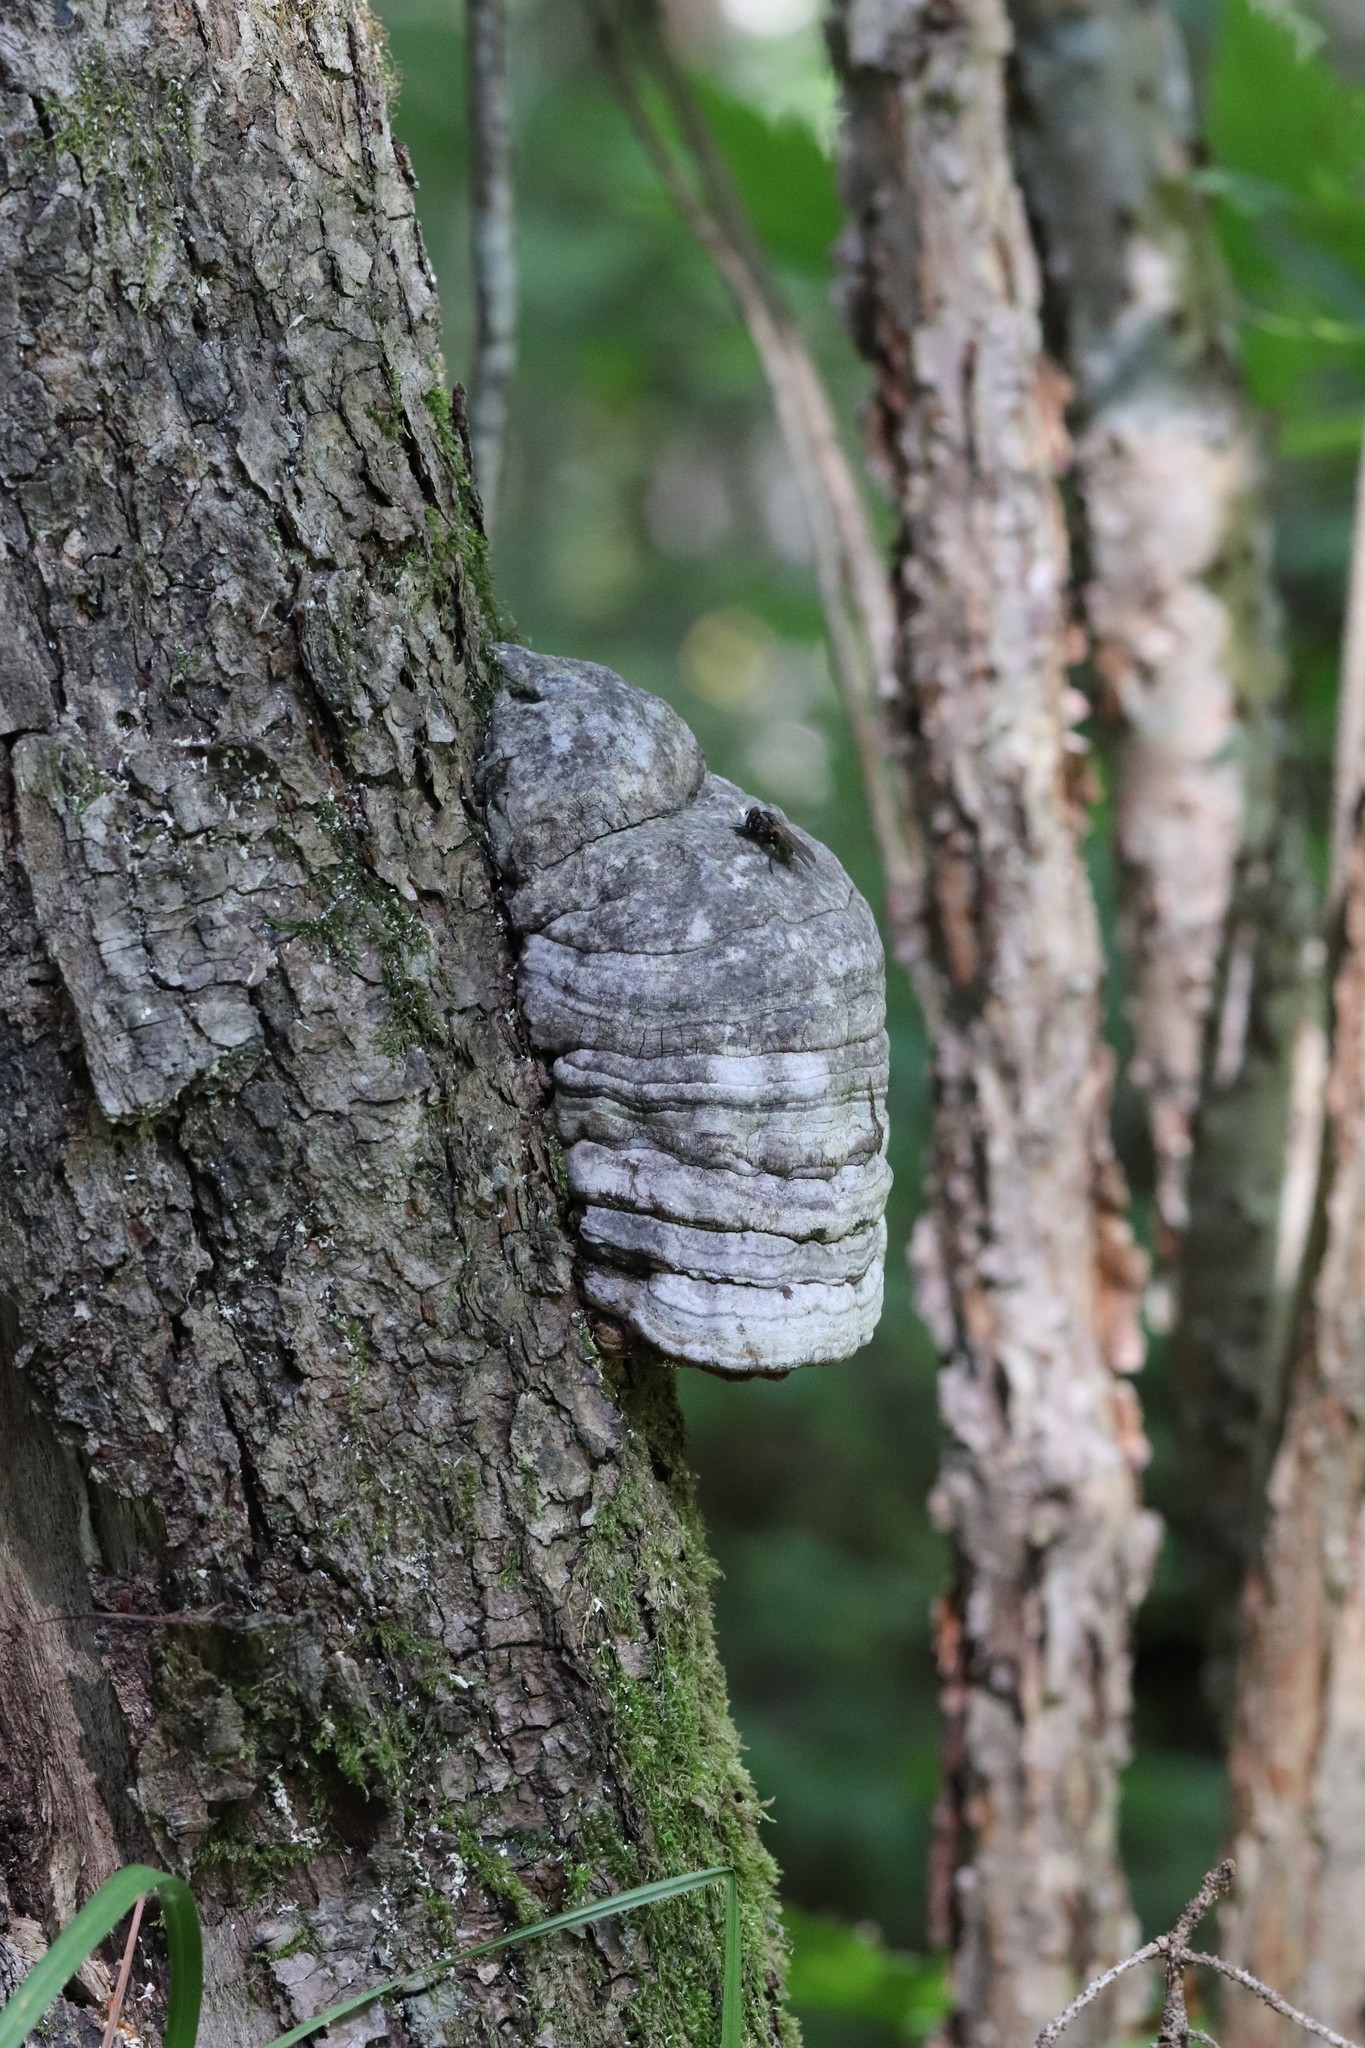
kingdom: Fungi
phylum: Basidiomycota
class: Agaricomycetes
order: Polyporales
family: Polyporaceae
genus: Fomes
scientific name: Fomes fomentarius
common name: Hoof fungus
